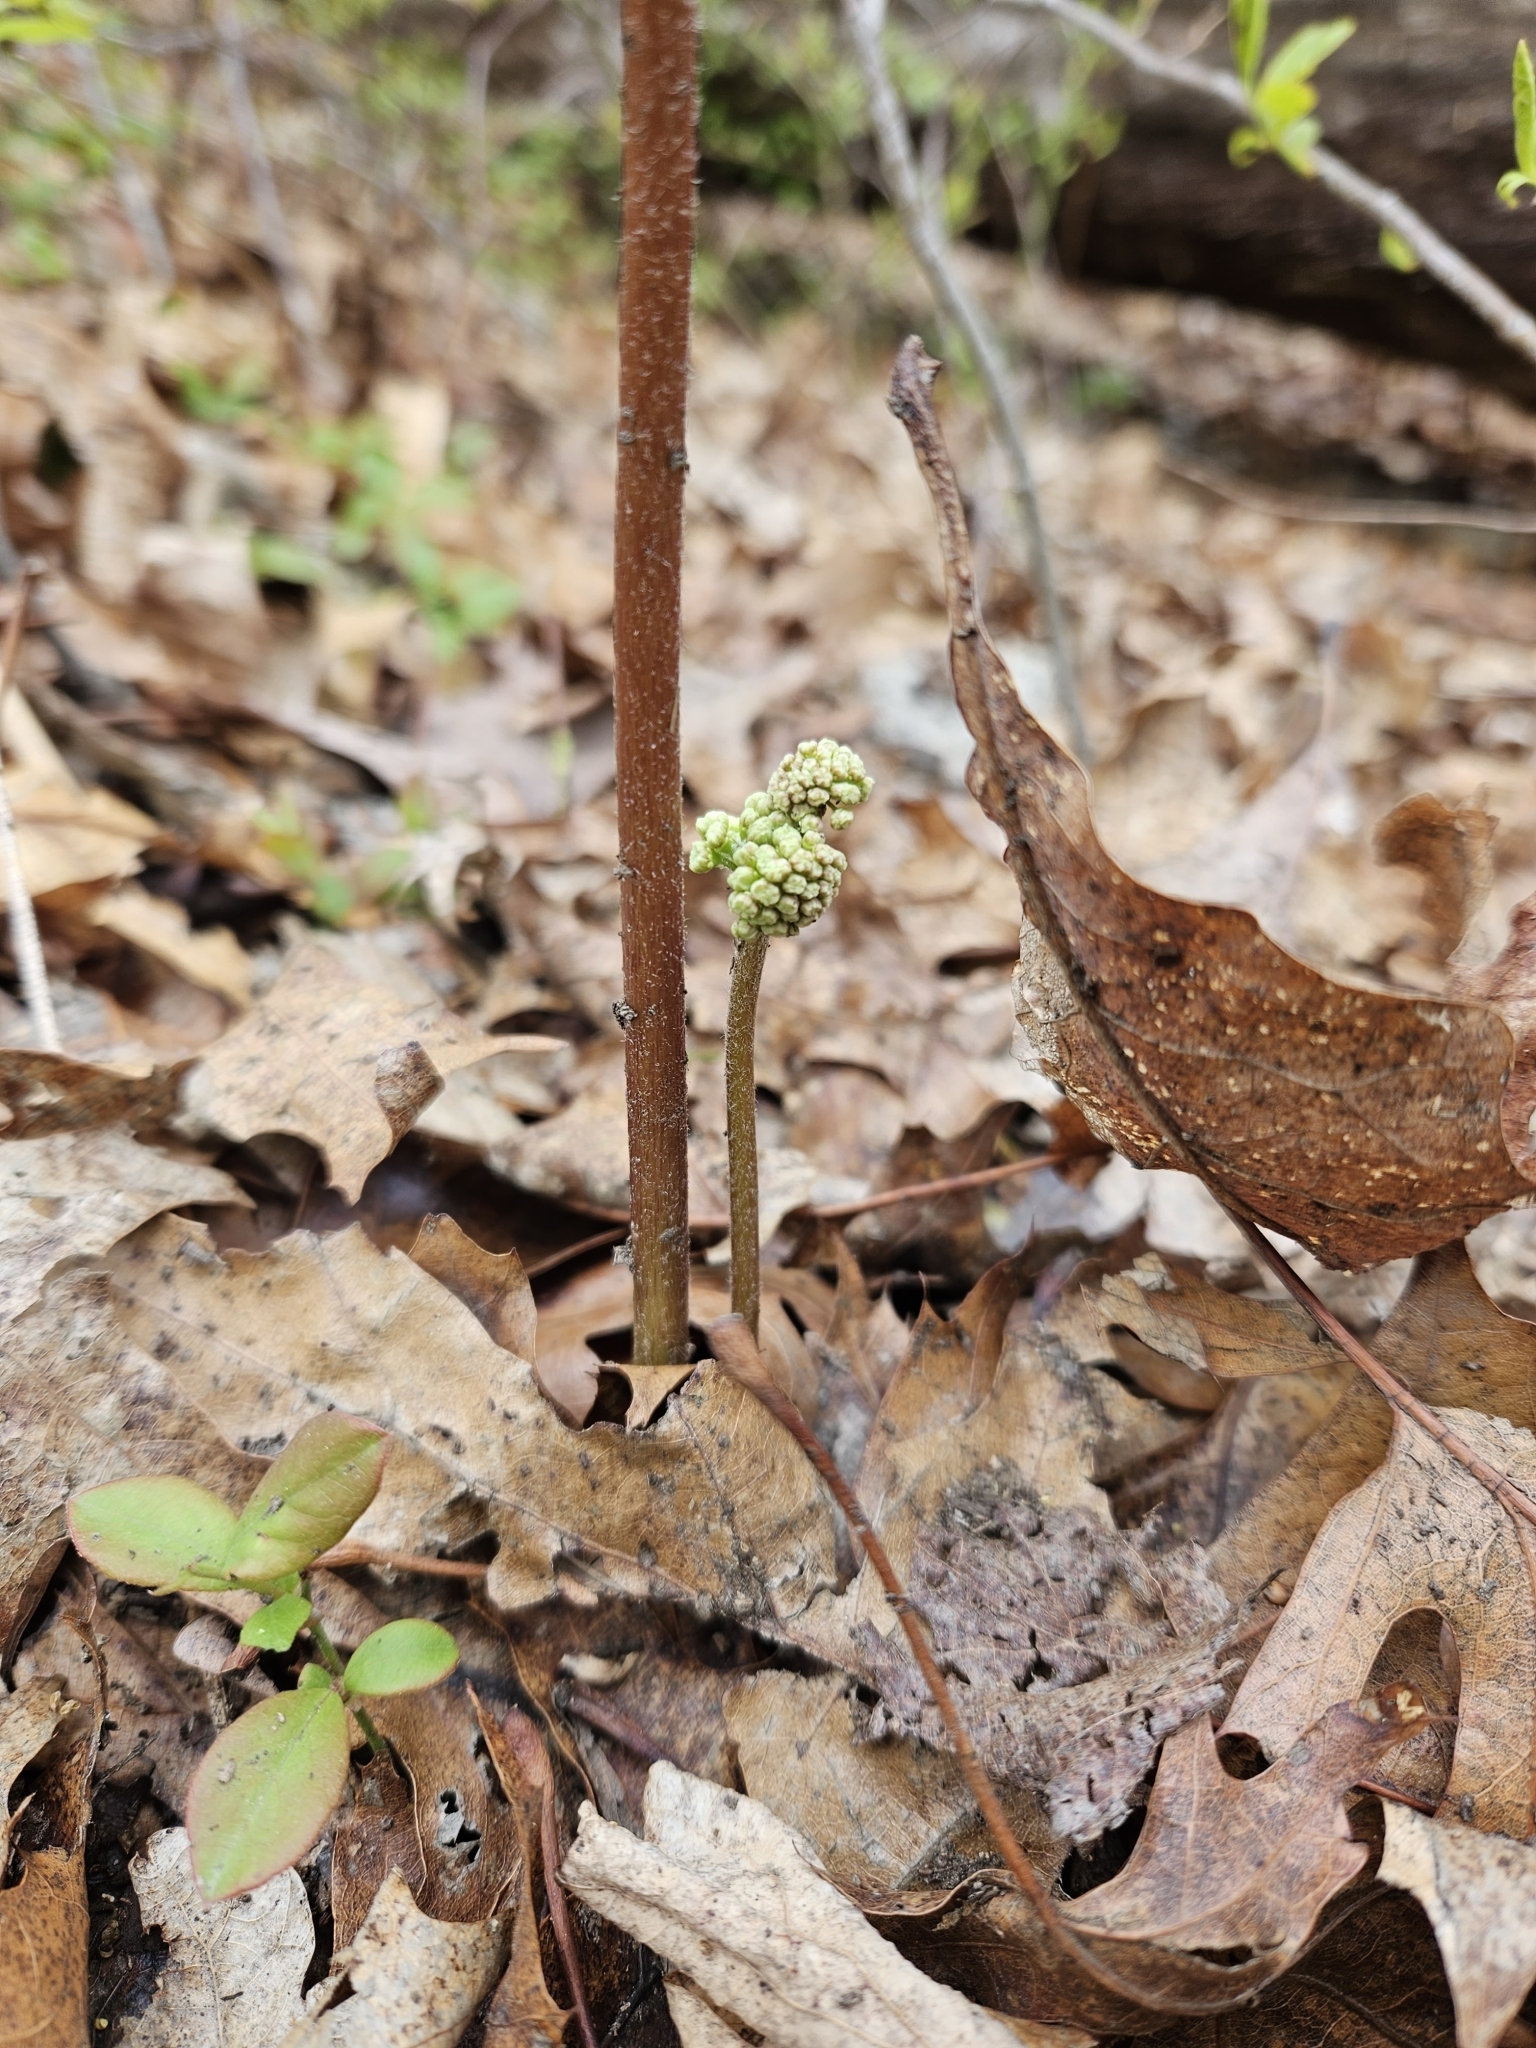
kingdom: Plantae
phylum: Tracheophyta
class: Magnoliopsida
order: Apiales
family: Araliaceae
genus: Aralia
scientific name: Aralia nudicaulis
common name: Wild sarsaparilla
